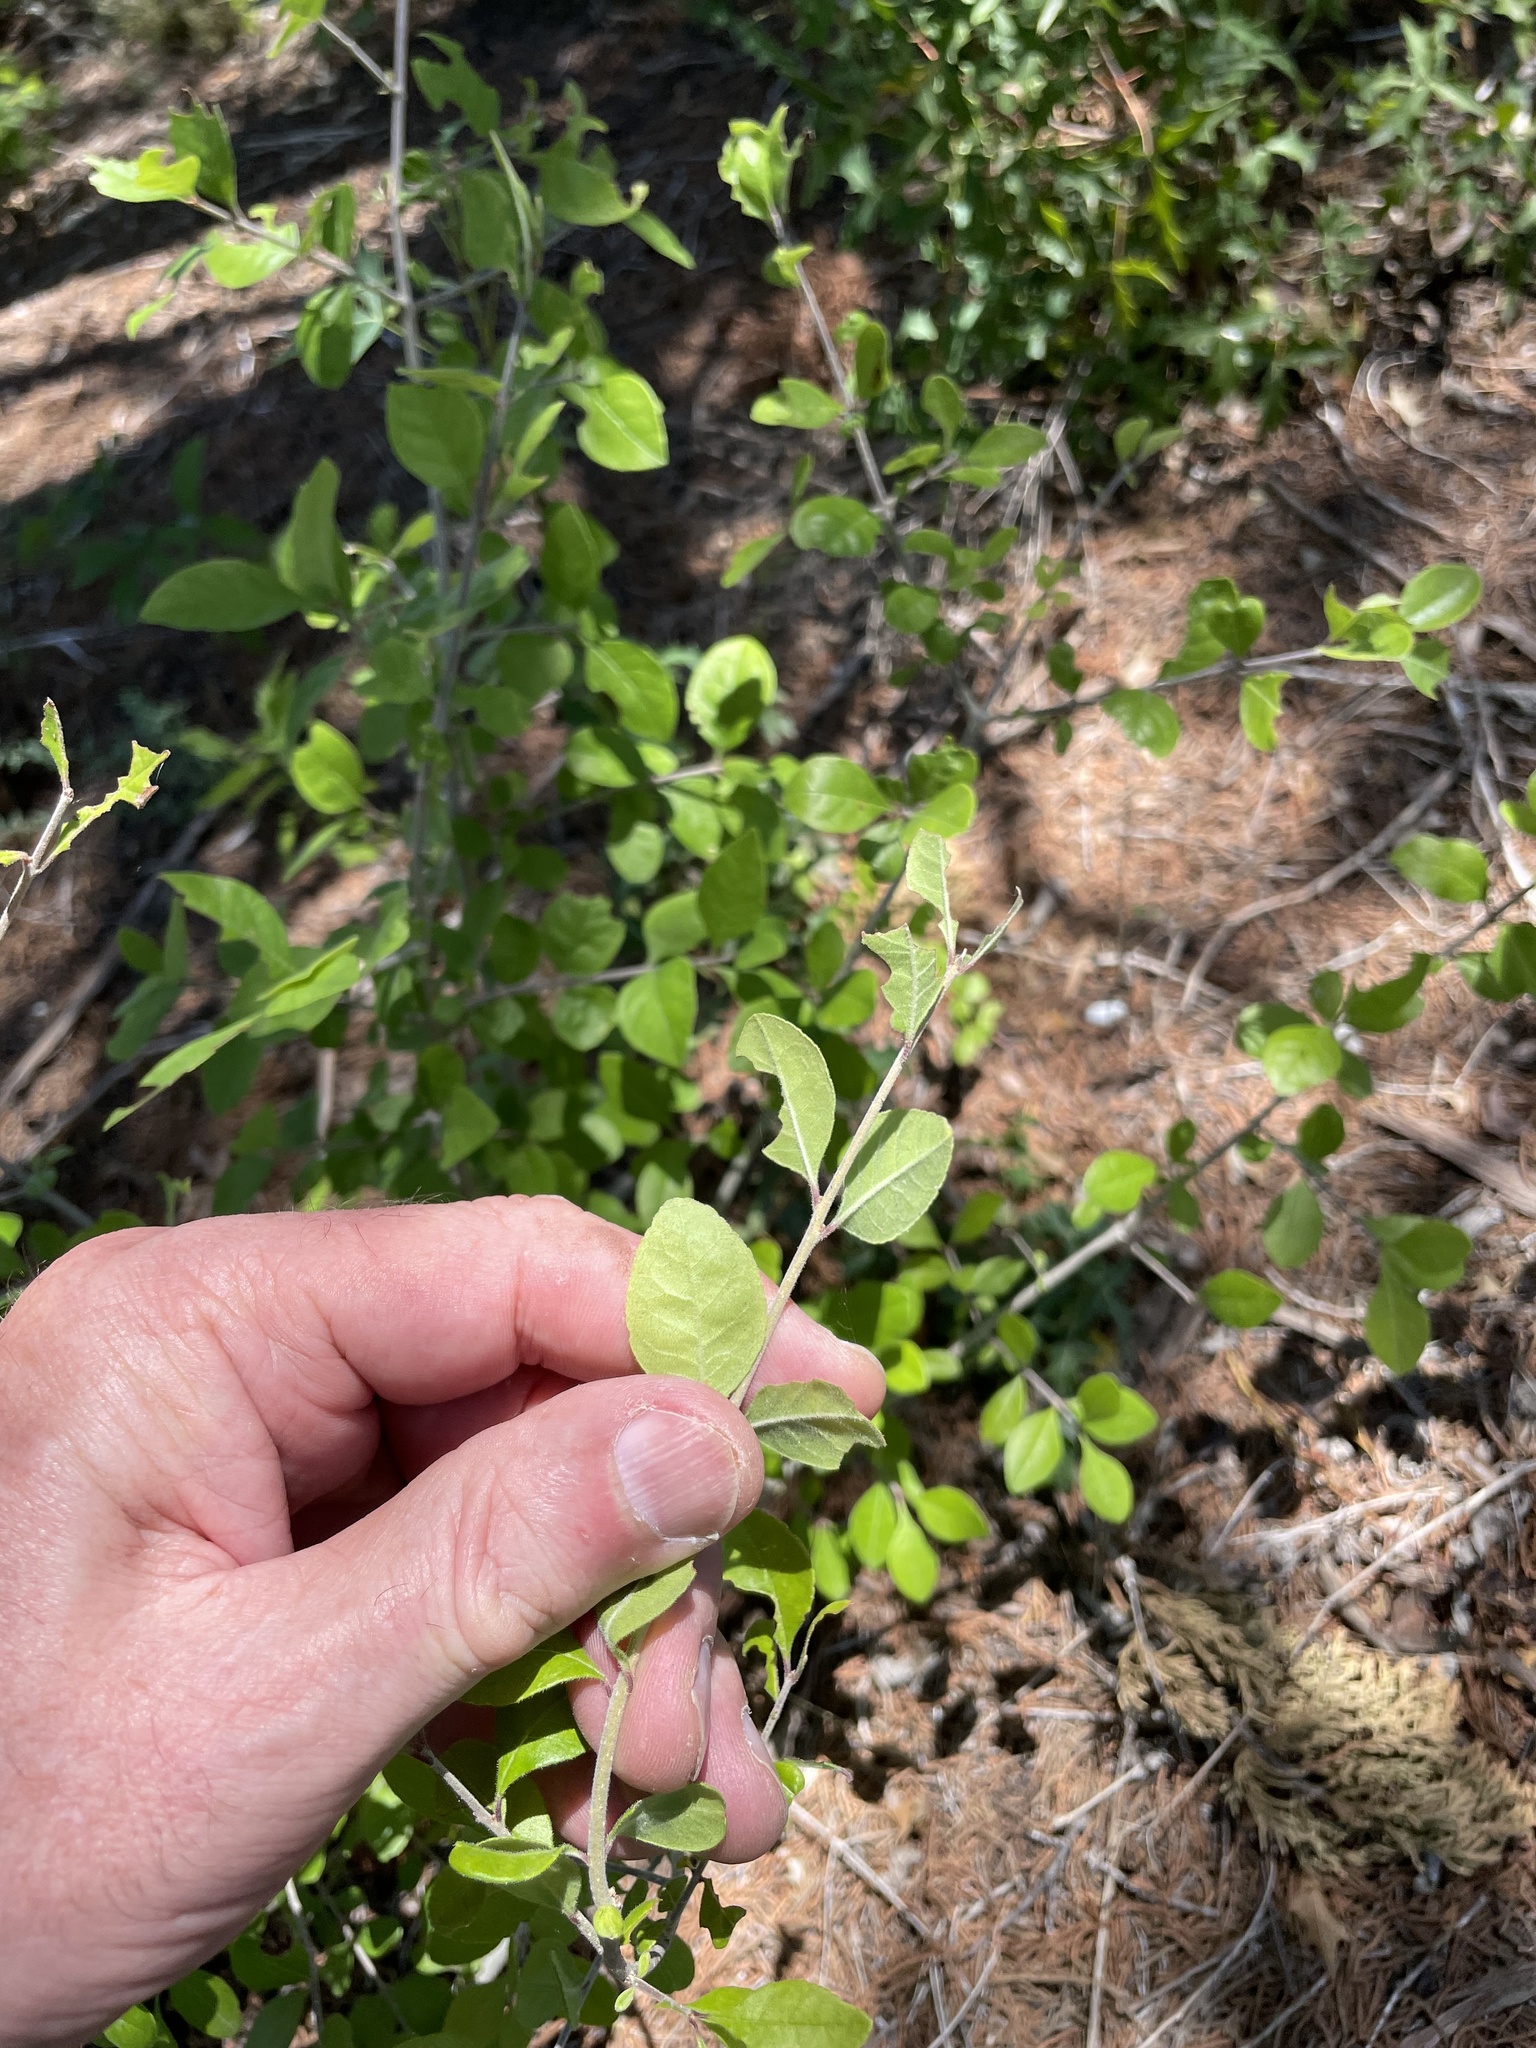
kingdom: Plantae
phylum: Tracheophyta
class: Magnoliopsida
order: Lamiales
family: Oleaceae
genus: Forestiera
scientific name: Forestiera pubescens
